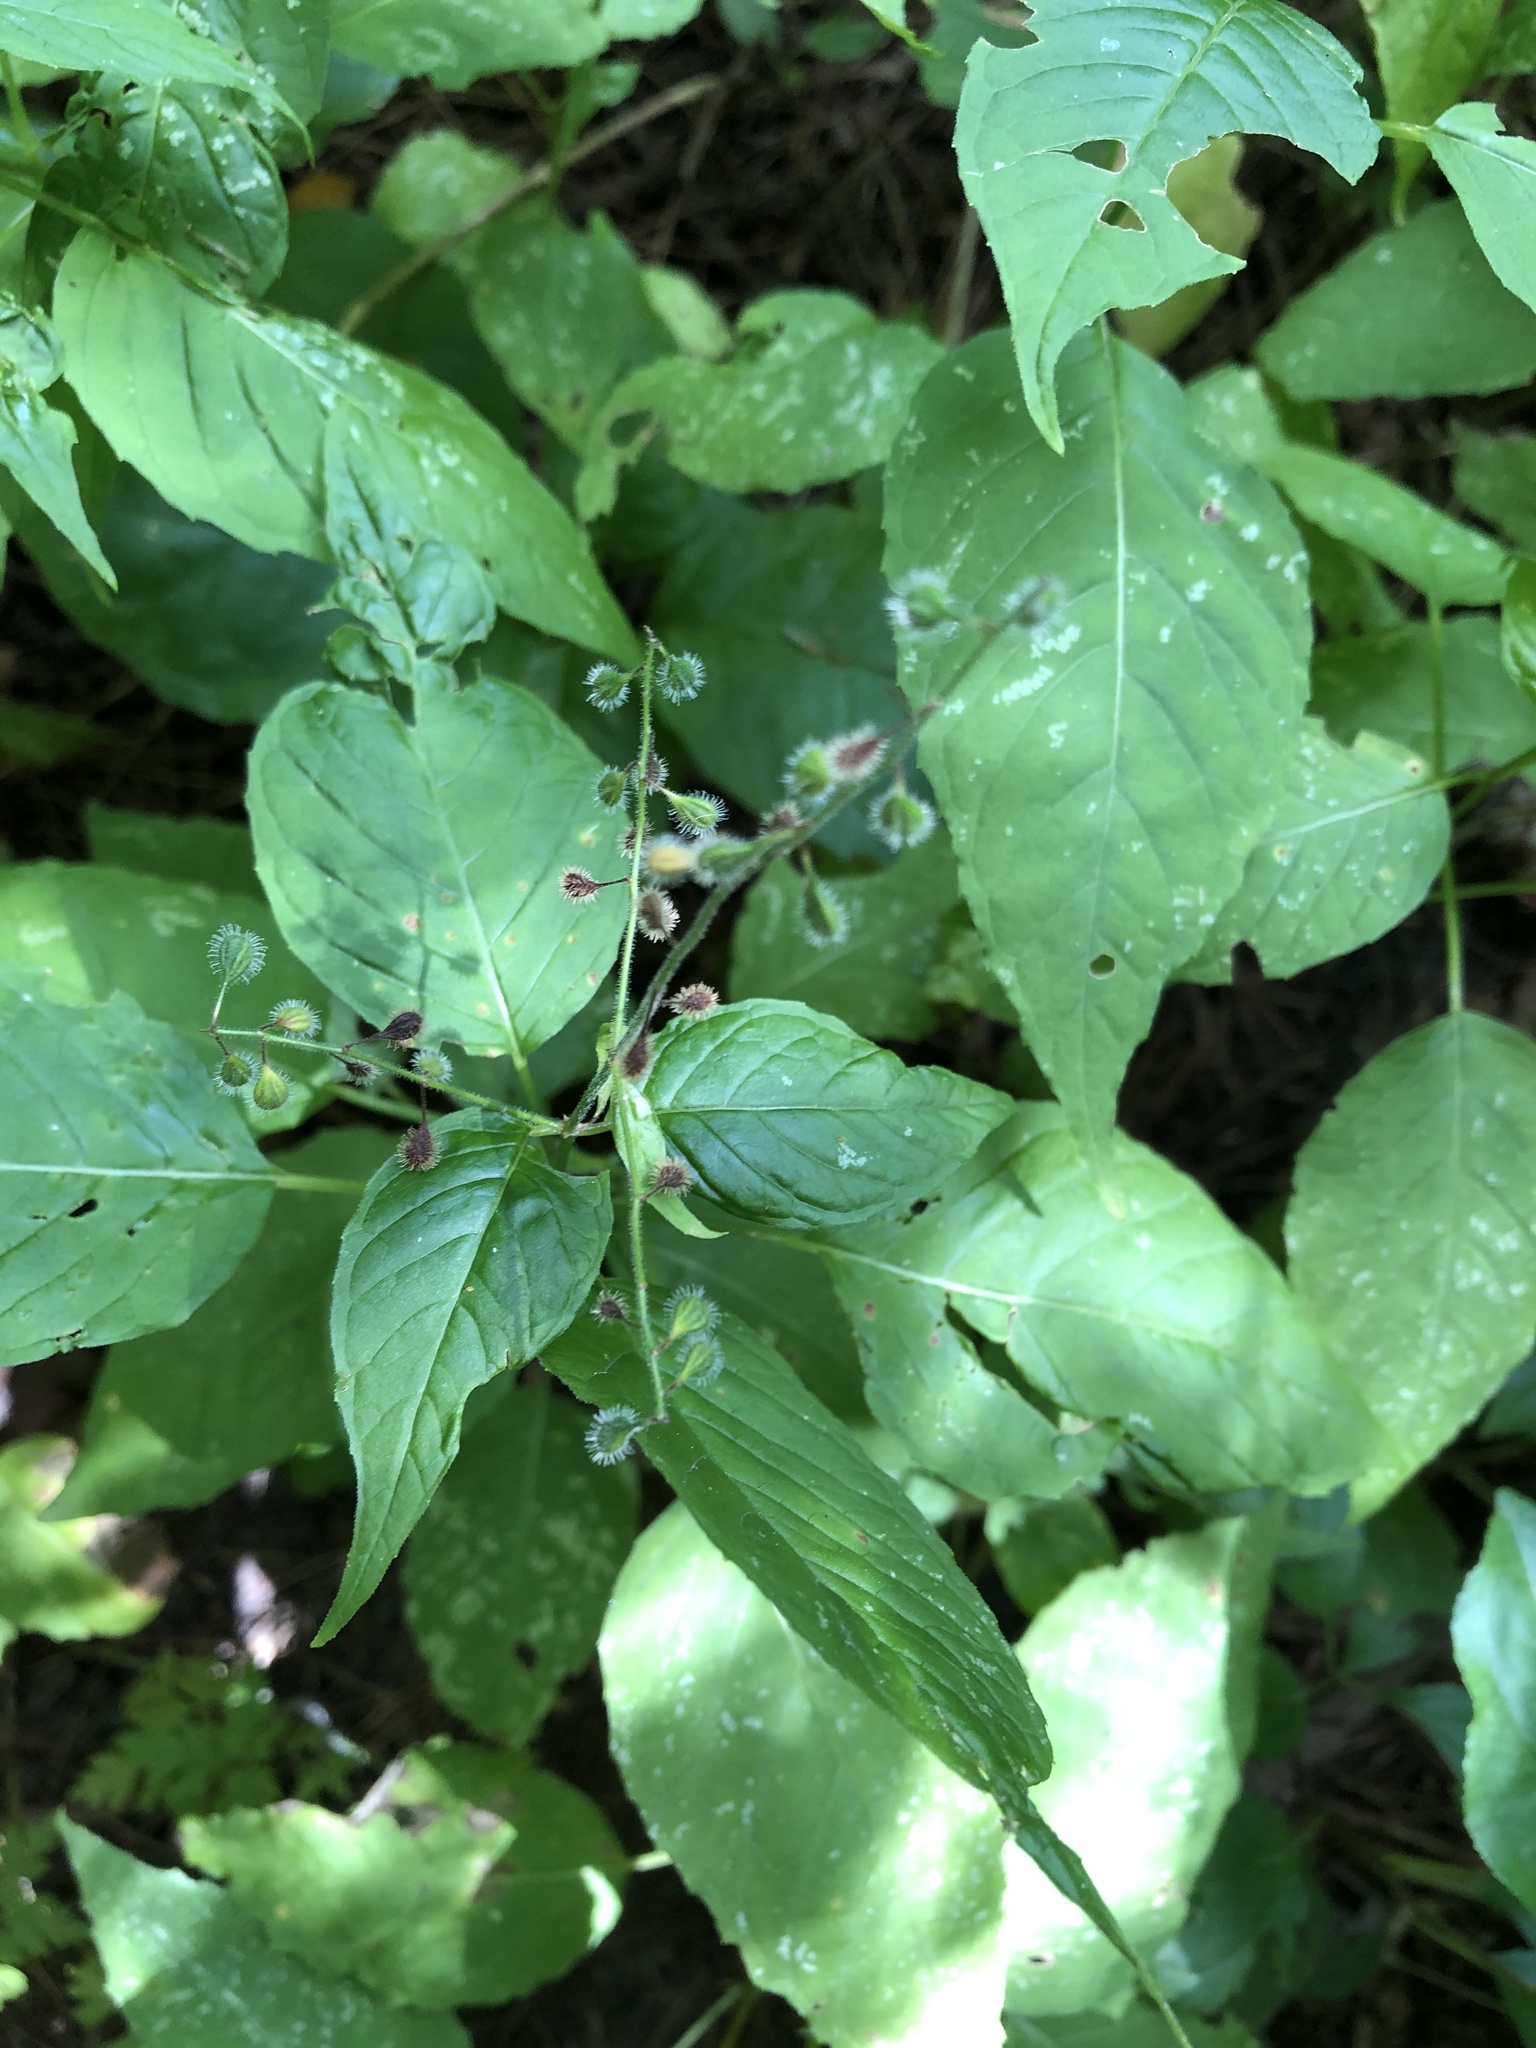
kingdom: Plantae
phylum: Tracheophyta
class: Magnoliopsida
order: Myrtales
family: Onagraceae
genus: Circaea
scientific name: Circaea canadensis
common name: Broad-leaved enchanter's nightshade
